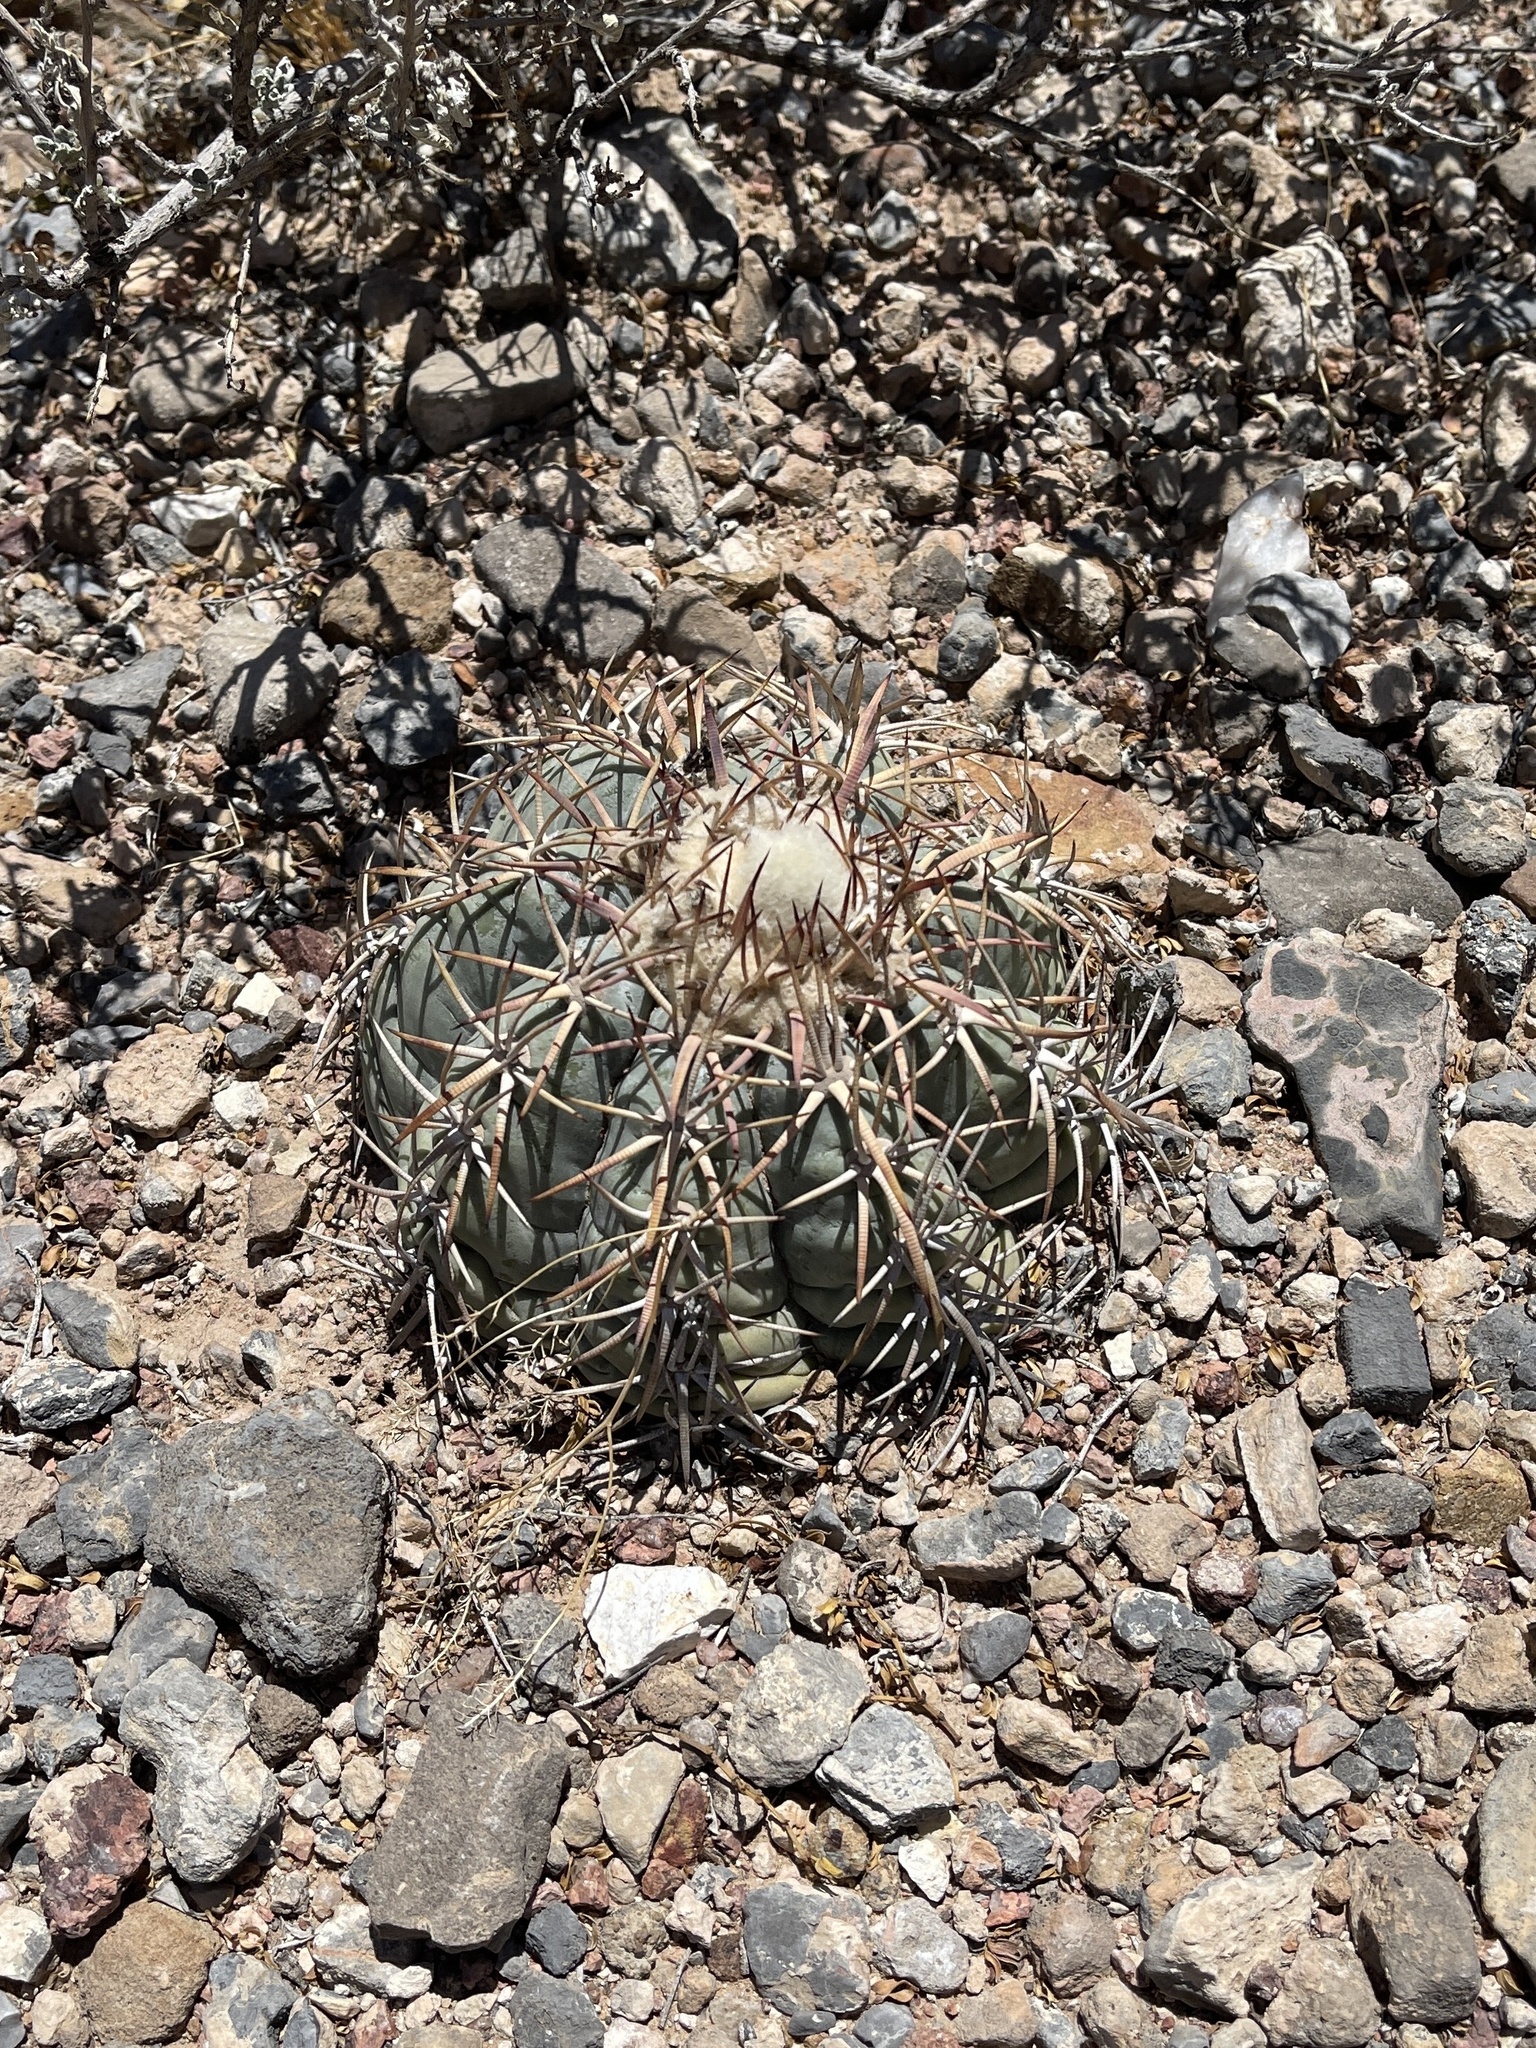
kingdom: Plantae
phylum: Tracheophyta
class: Magnoliopsida
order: Caryophyllales
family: Cactaceae
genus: Echinocactus
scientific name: Echinocactus horizonthalonius
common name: Devilshead
